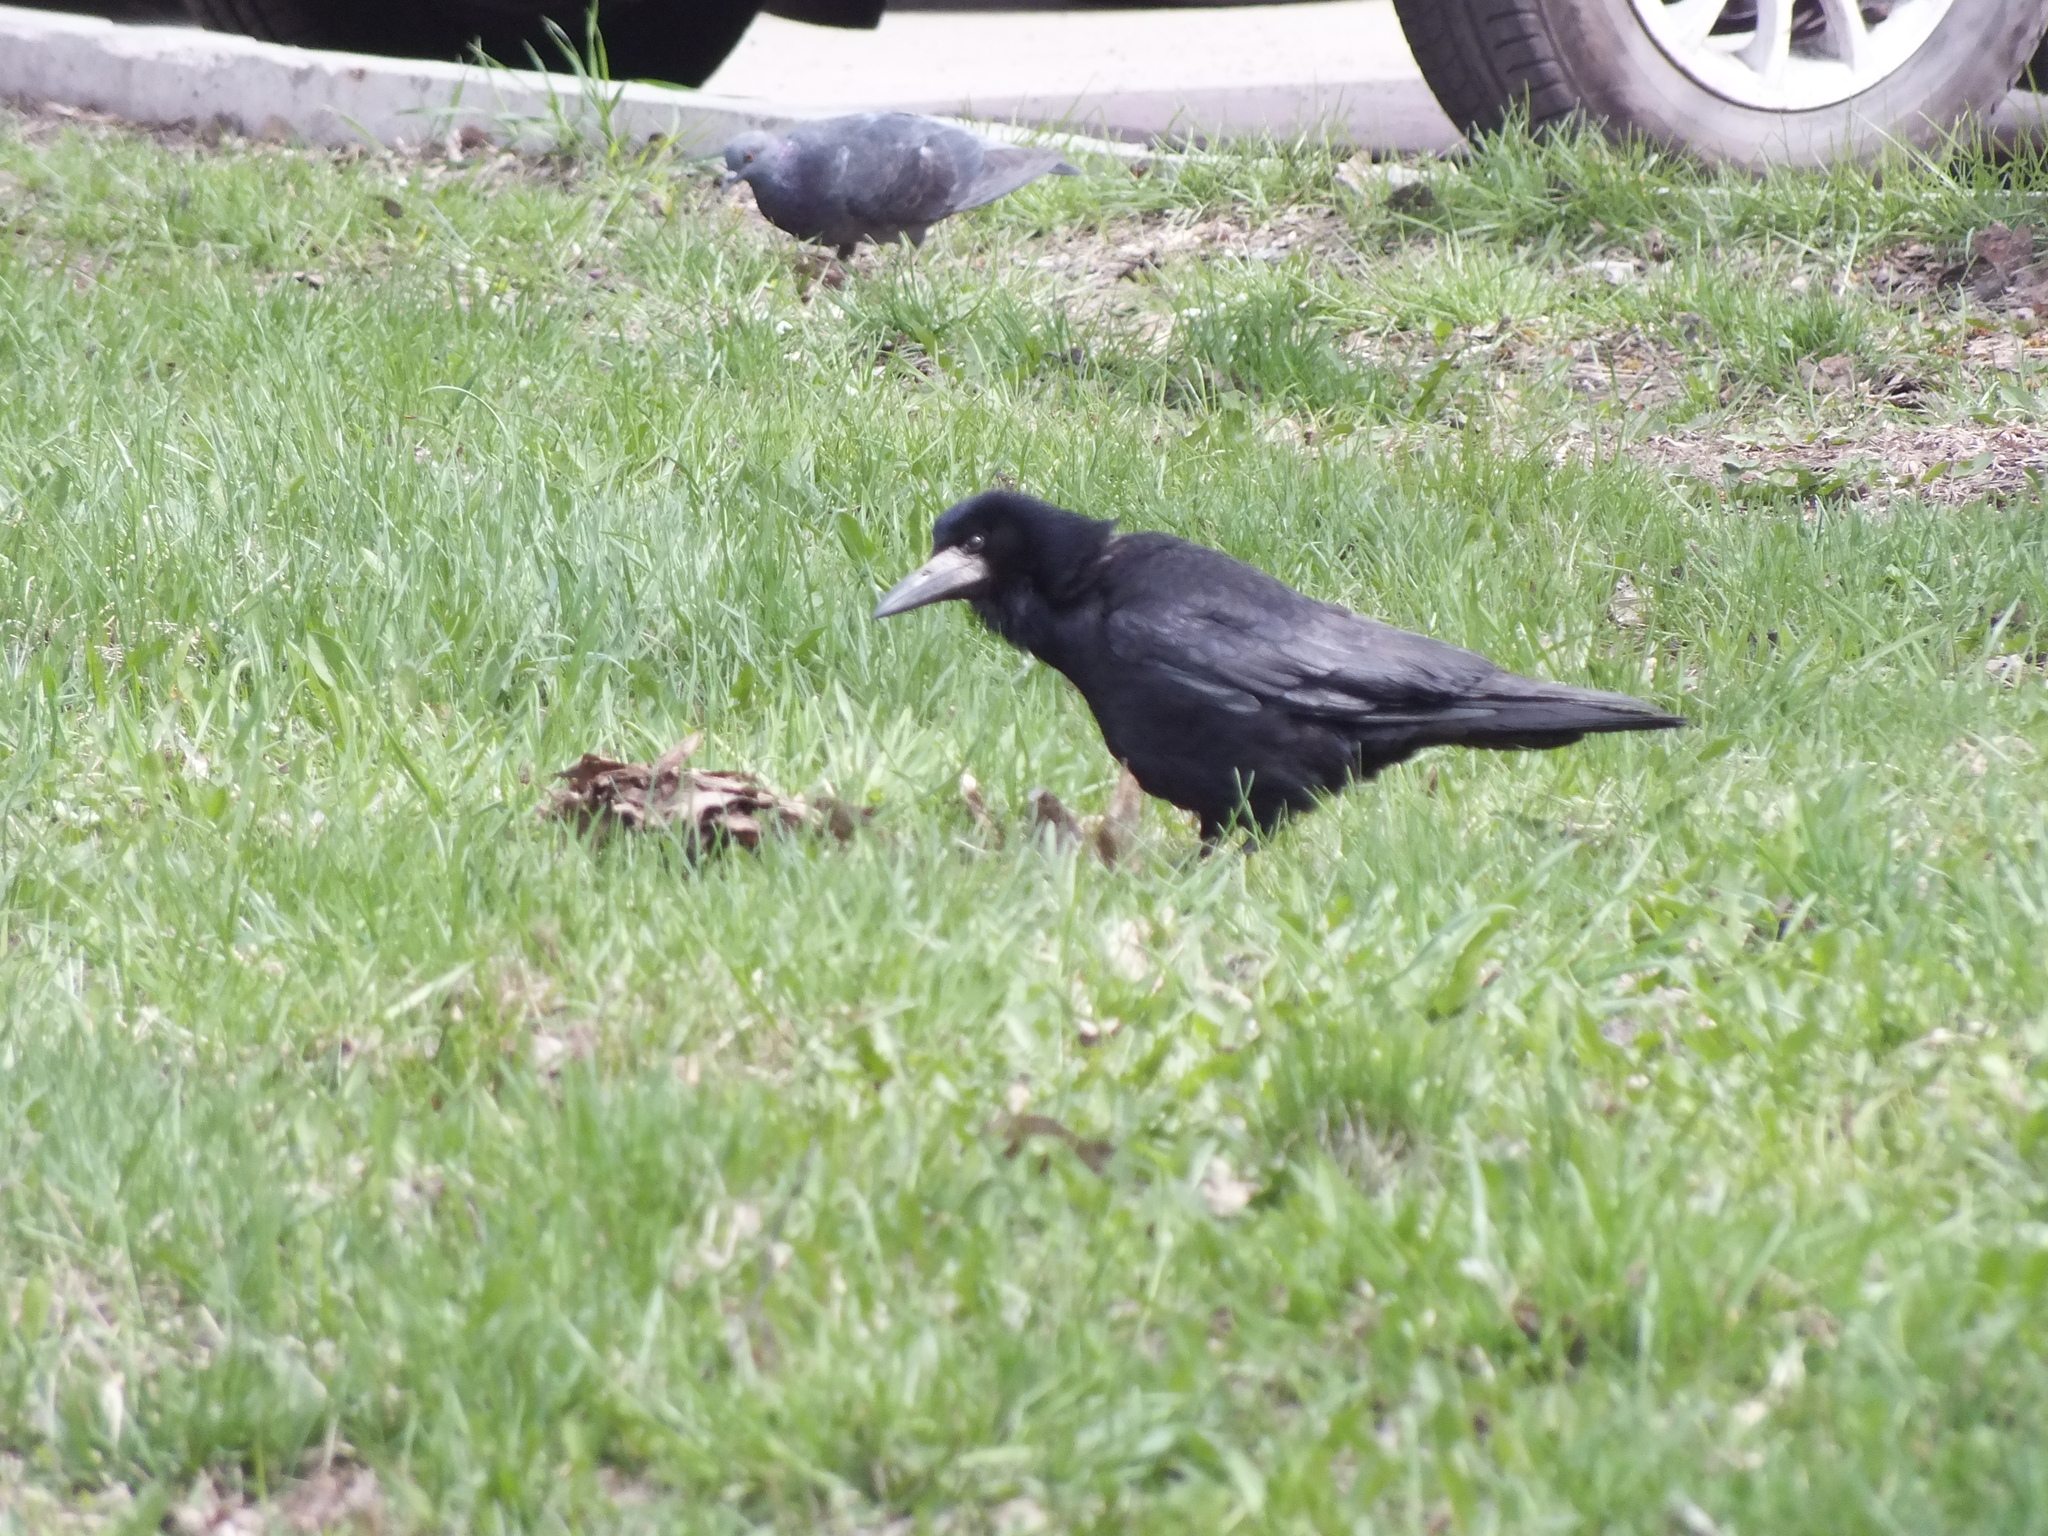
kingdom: Animalia
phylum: Chordata
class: Aves
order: Passeriformes
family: Corvidae
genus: Corvus
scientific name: Corvus frugilegus
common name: Rook
